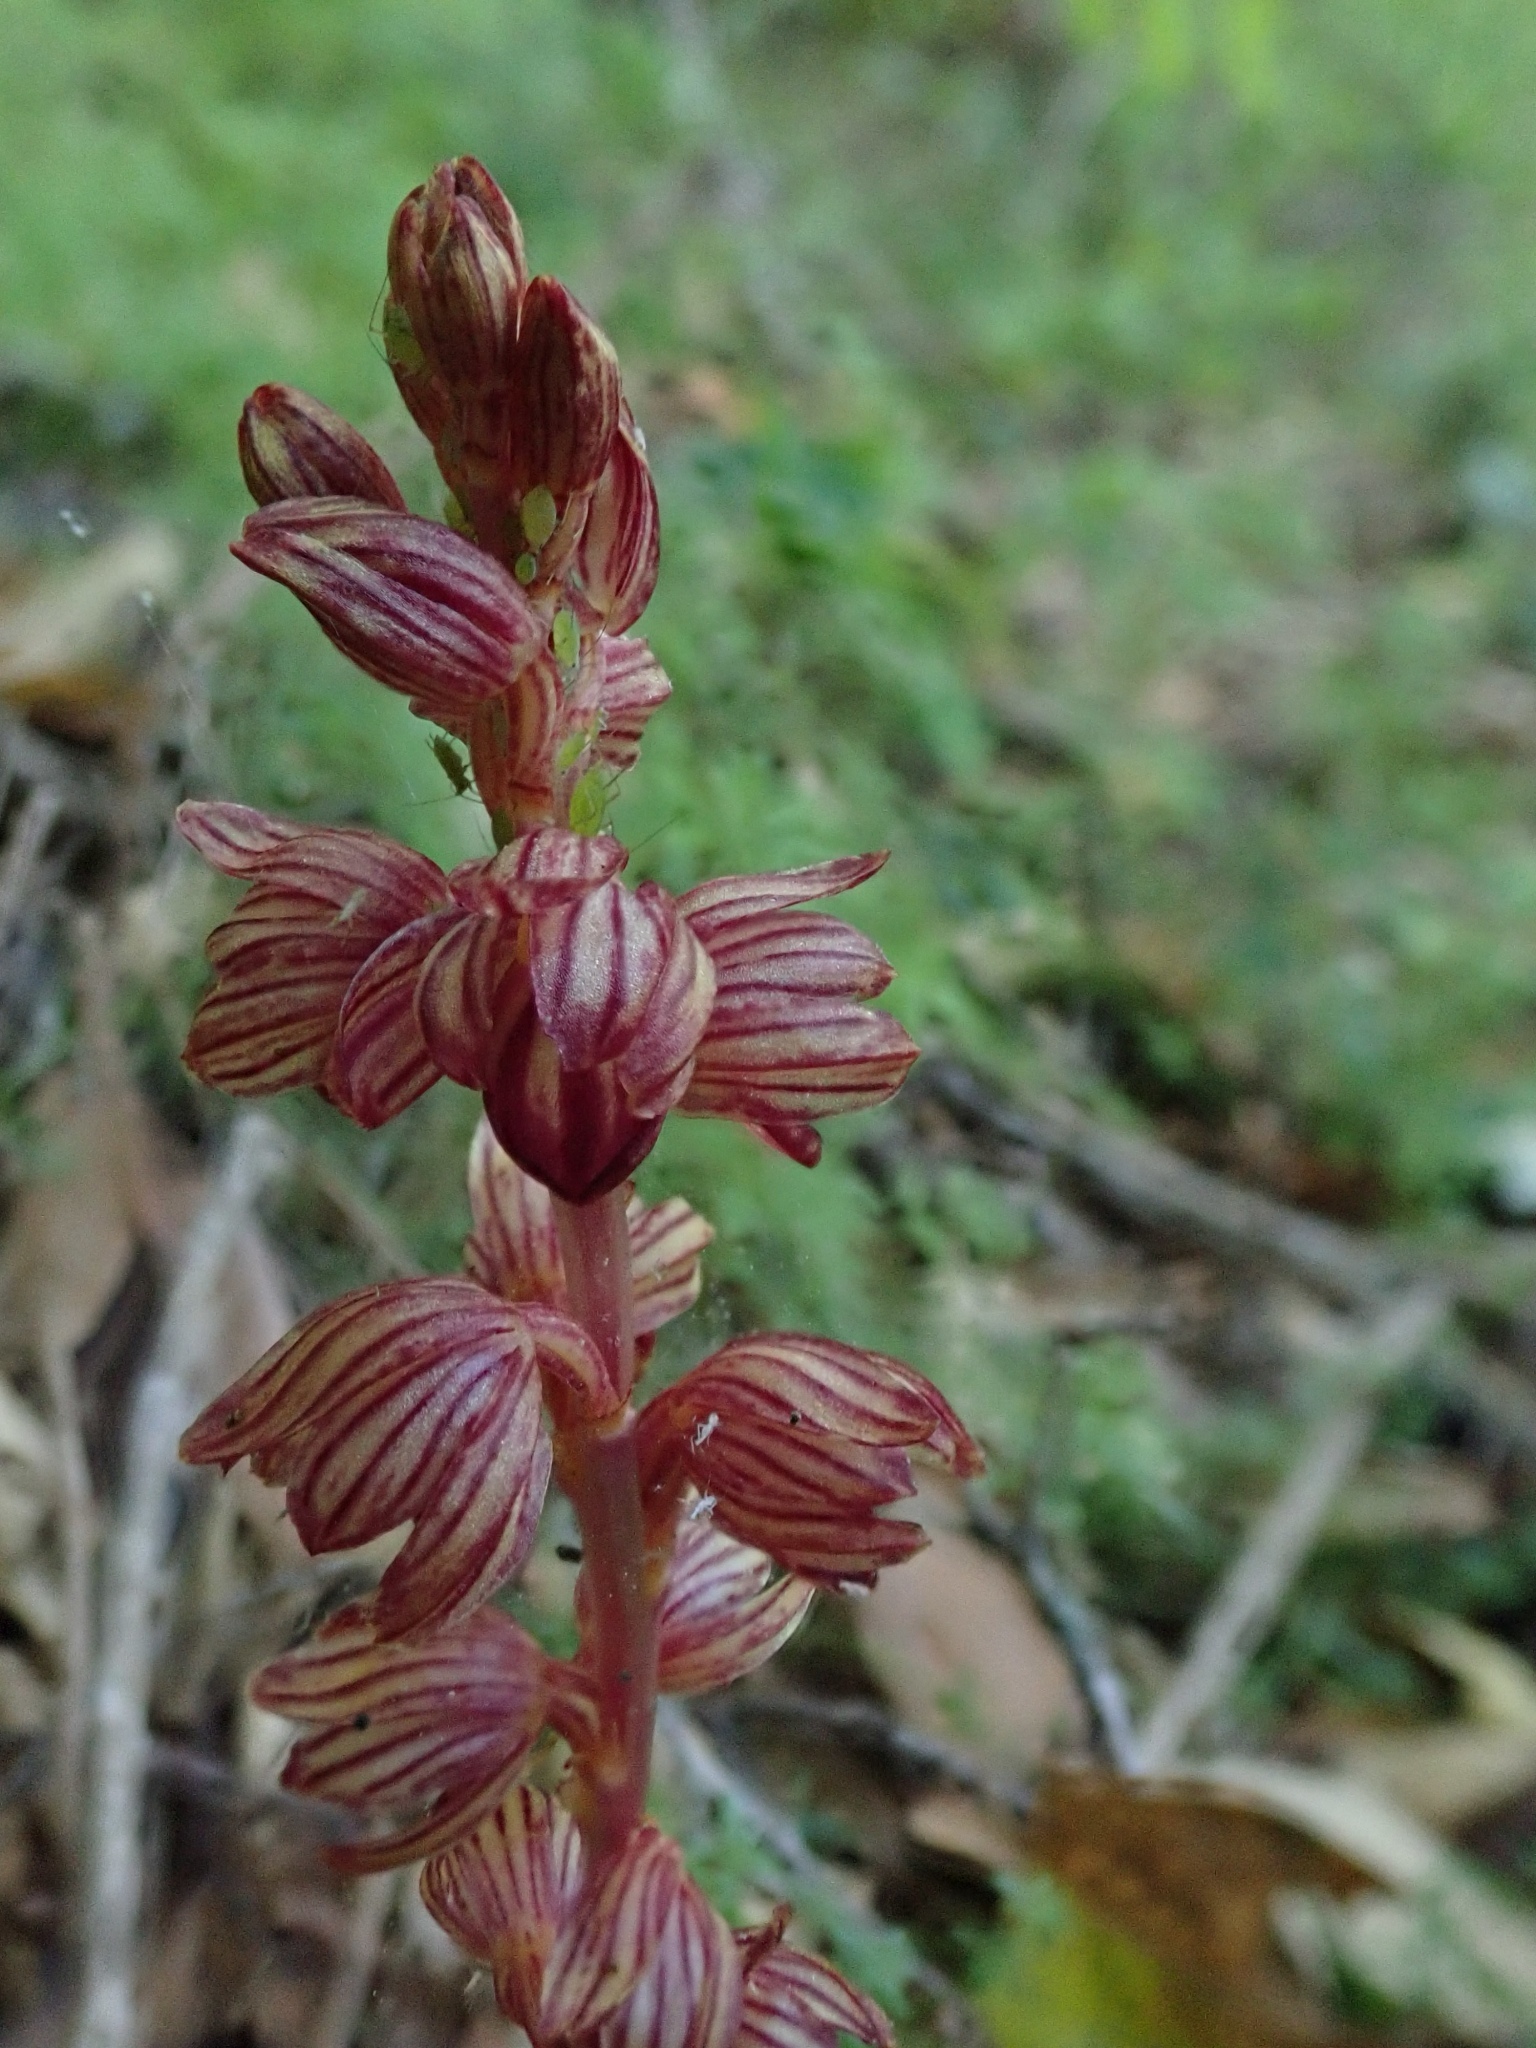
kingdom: Plantae
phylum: Tracheophyta
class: Liliopsida
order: Asparagales
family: Orchidaceae
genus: Corallorhiza
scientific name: Corallorhiza striata
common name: Hooded coralroot
